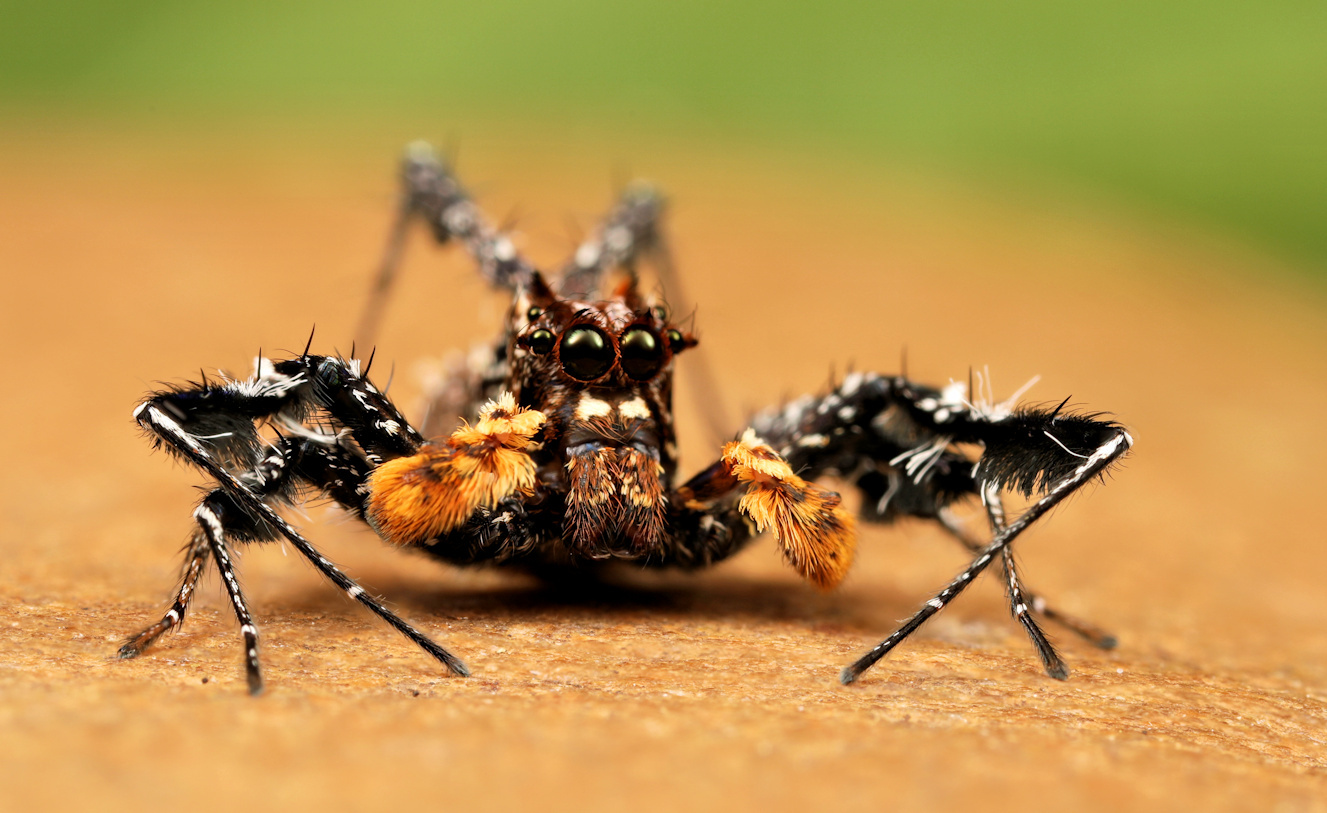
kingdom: Animalia
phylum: Arthropoda
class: Arachnida
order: Araneae
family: Salticidae
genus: Portia
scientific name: Portia schultzi
